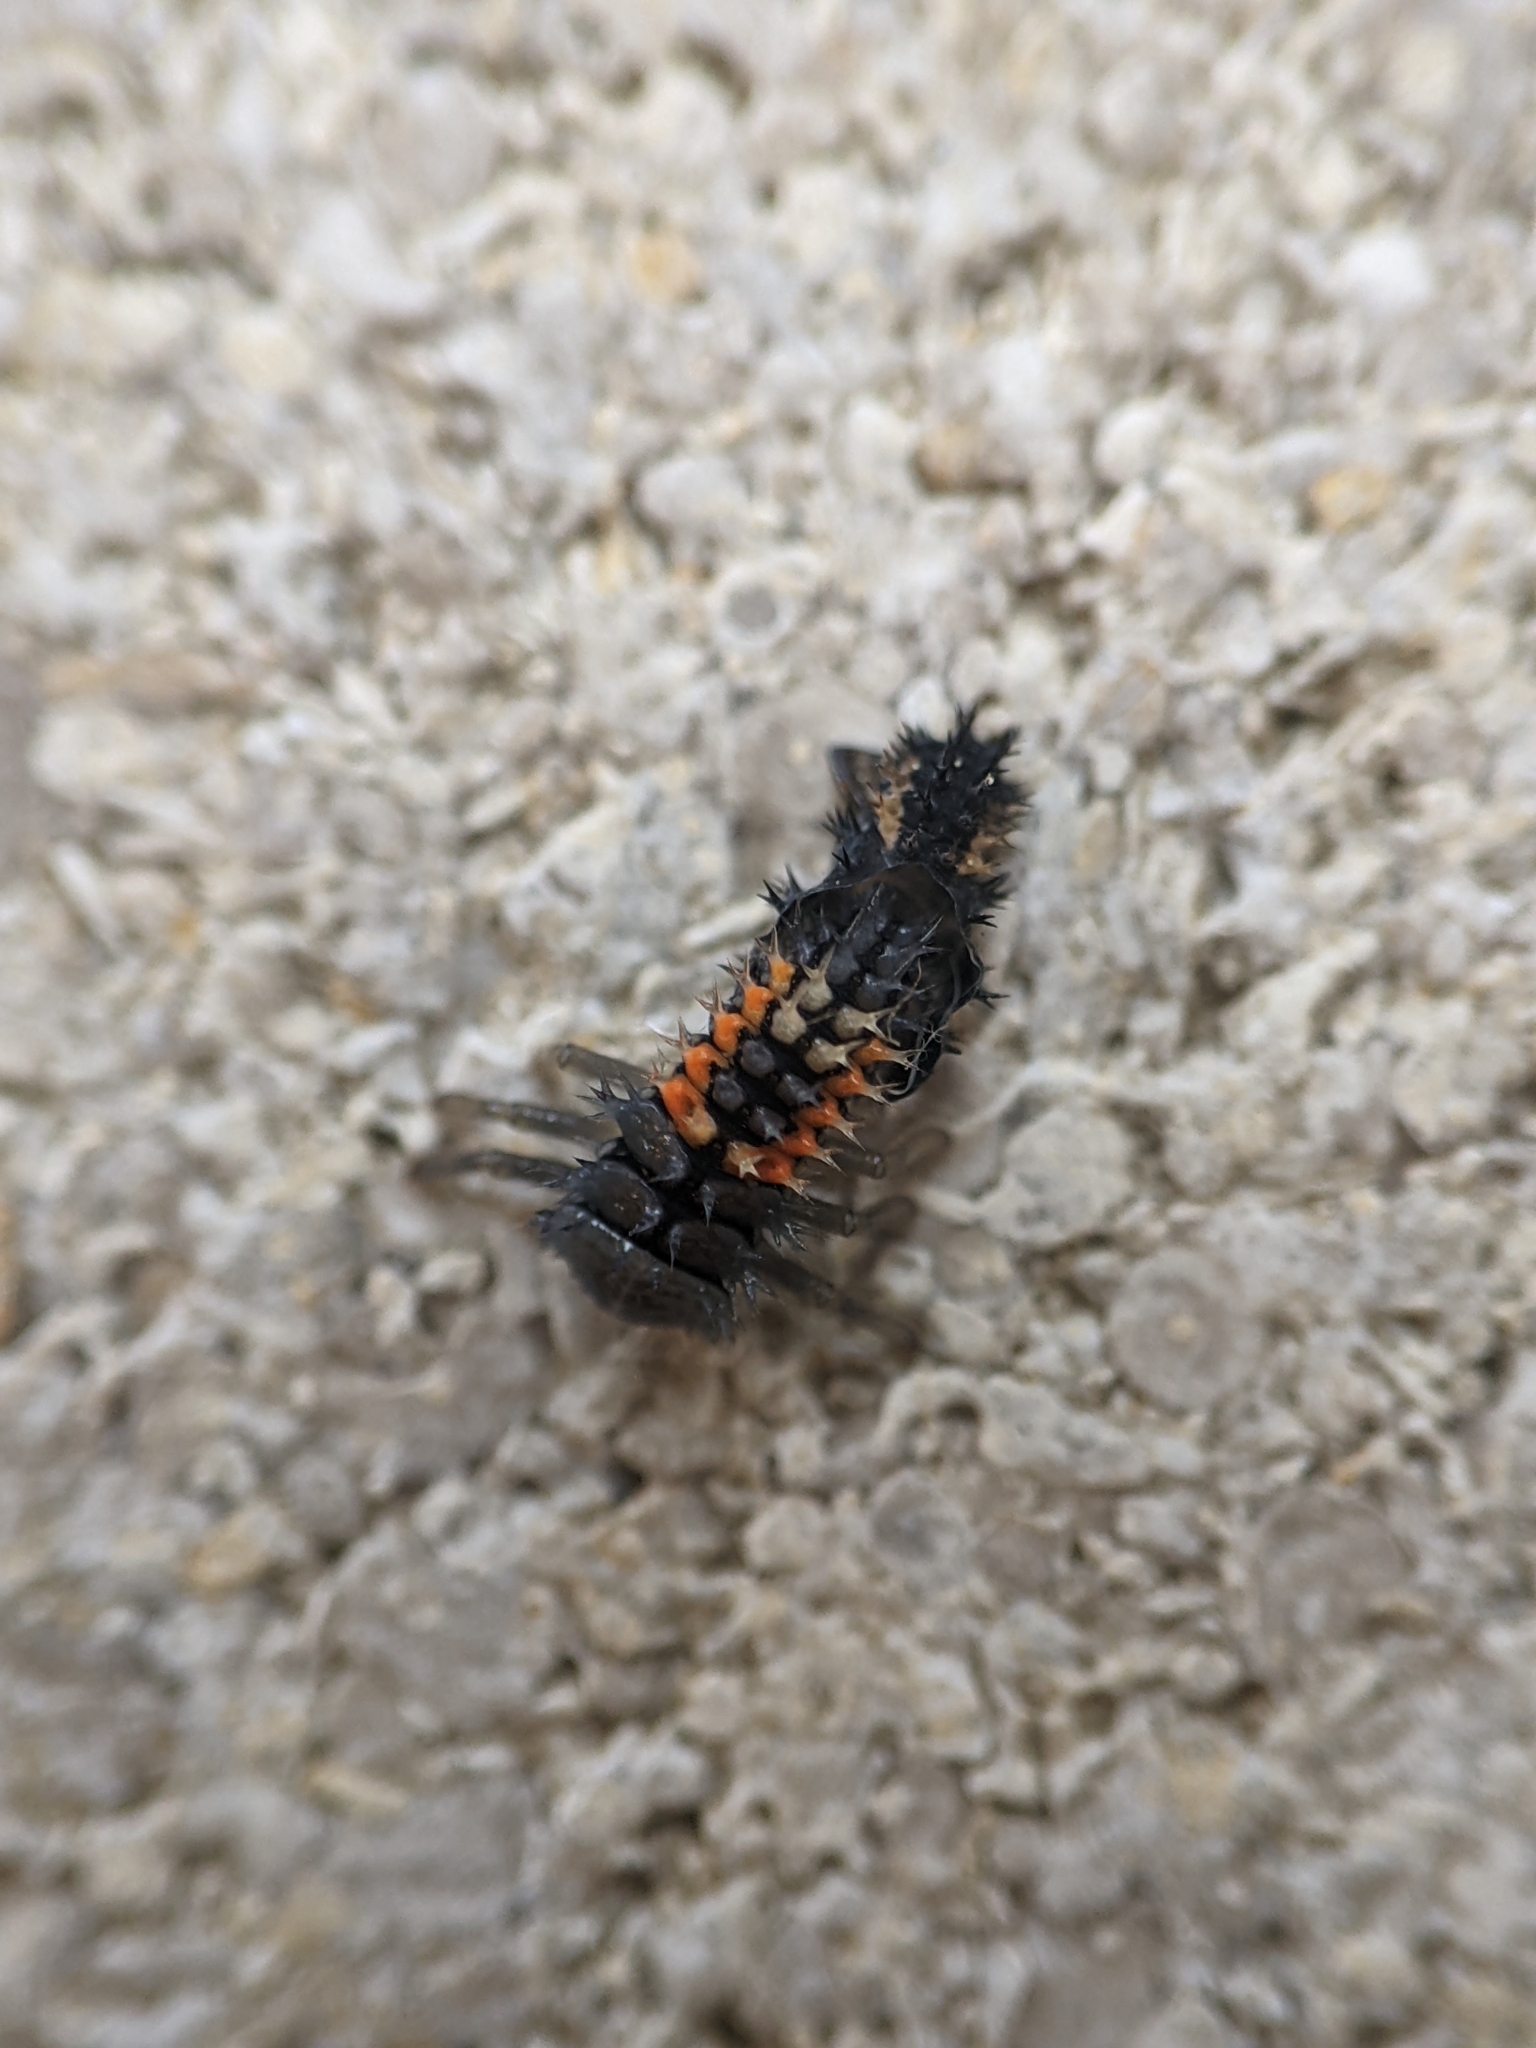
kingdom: Animalia
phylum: Arthropoda
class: Insecta
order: Coleoptera
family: Coccinellidae
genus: Harmonia
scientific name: Harmonia axyridis
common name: Harlequin ladybird
